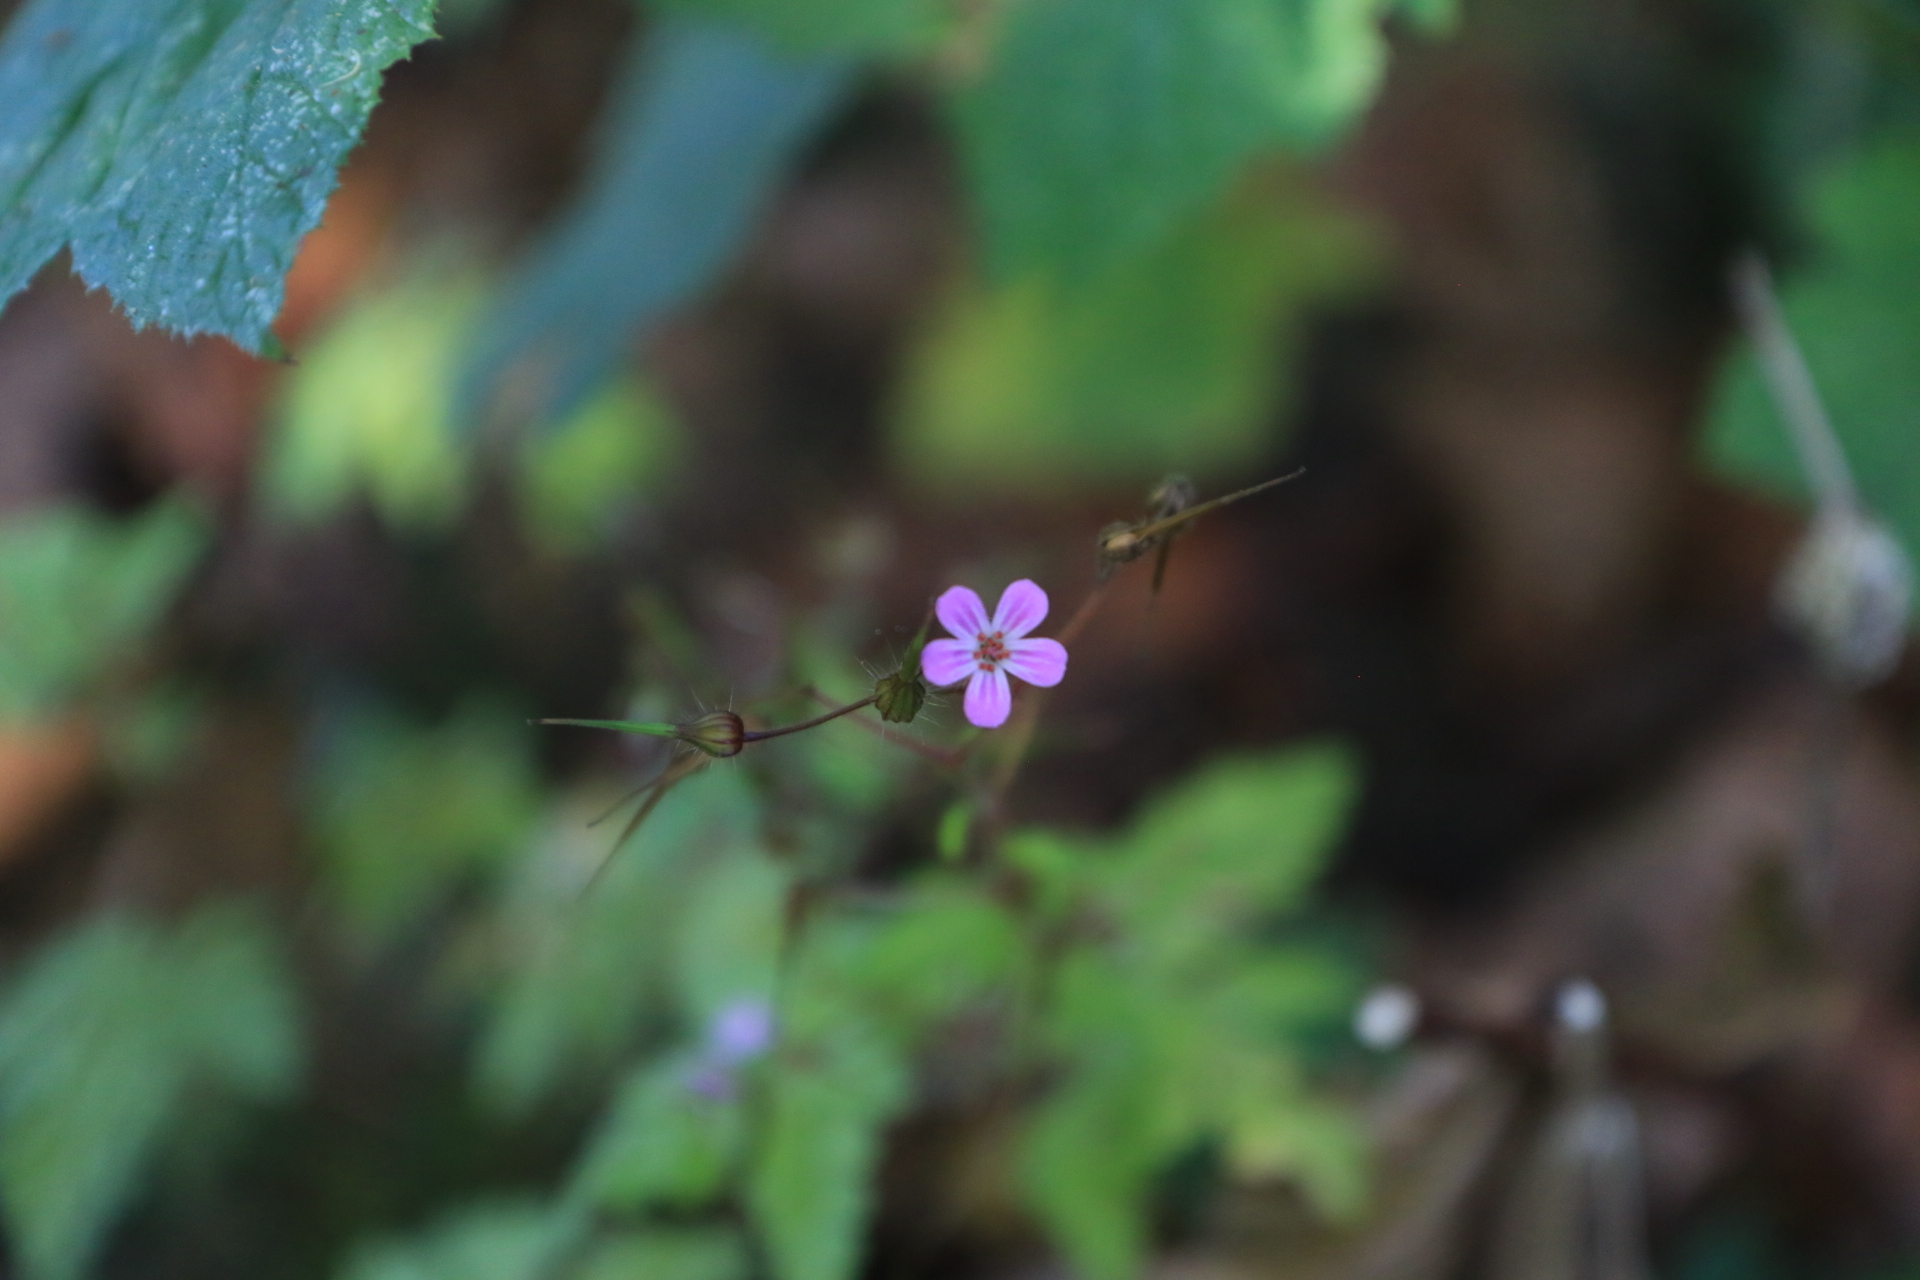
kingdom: Plantae
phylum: Tracheophyta
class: Magnoliopsida
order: Geraniales
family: Geraniaceae
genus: Geranium
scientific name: Geranium robertianum
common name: Herb-robert
